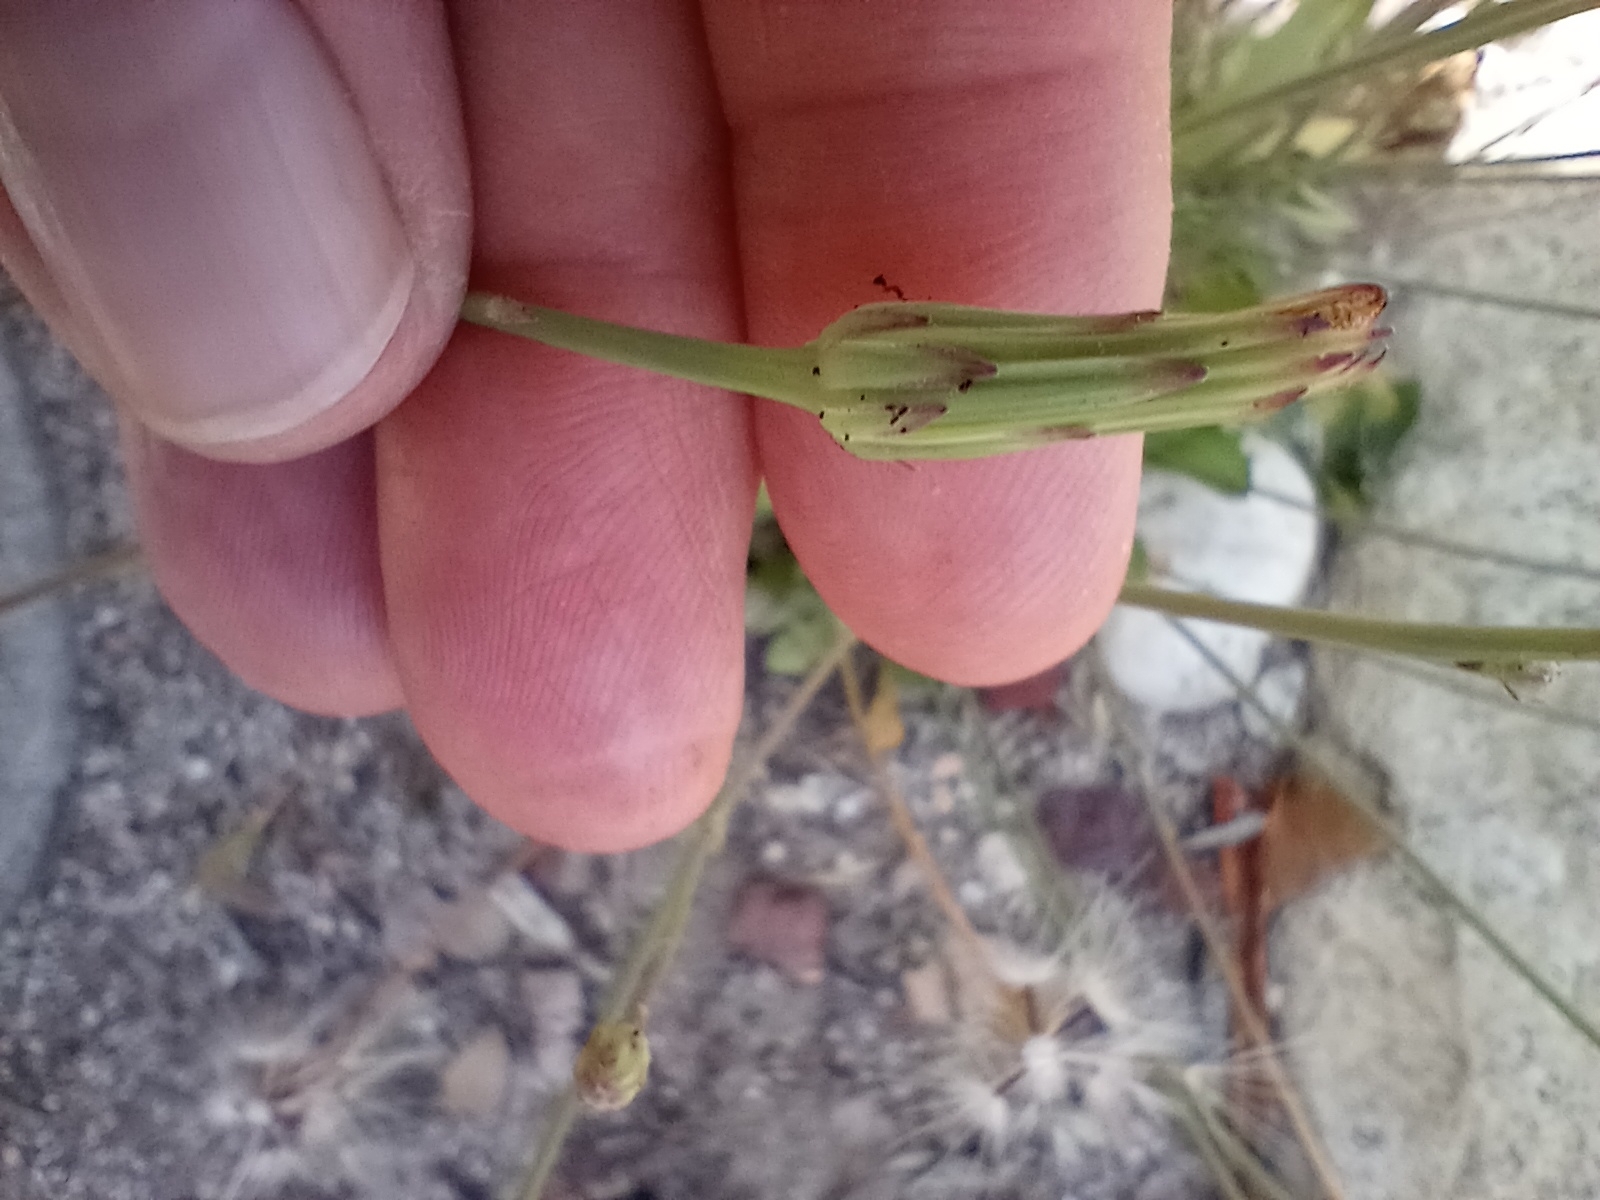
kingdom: Plantae
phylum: Tracheophyta
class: Magnoliopsida
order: Asterales
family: Asteraceae
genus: Hypochaeris
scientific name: Hypochaeris glabra
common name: Smooth catsear
